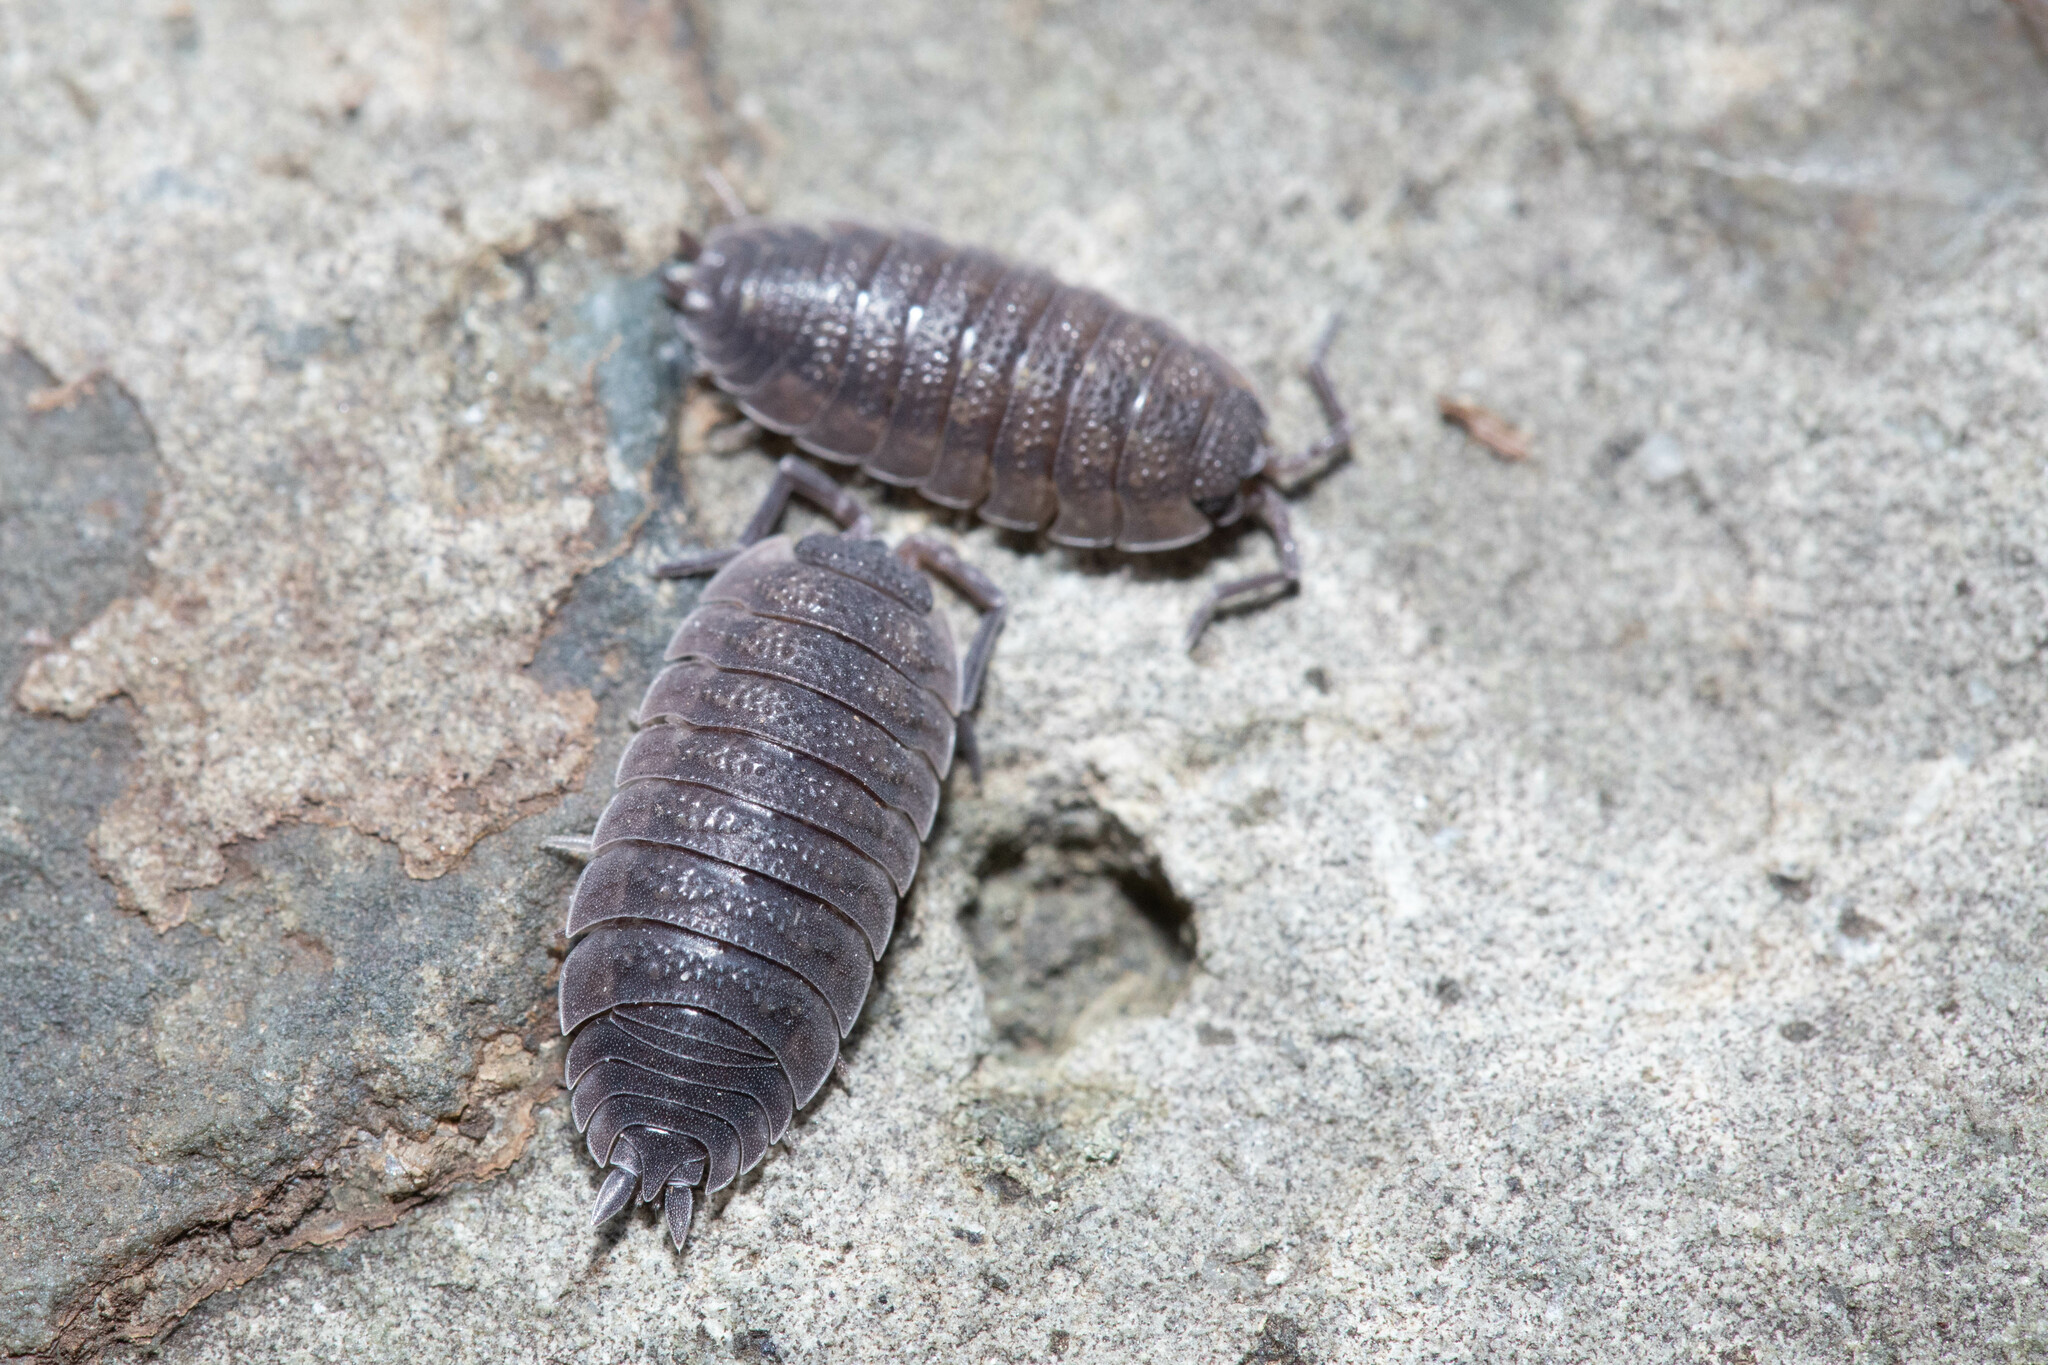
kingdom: Animalia
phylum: Arthropoda
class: Malacostraca
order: Isopoda
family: Porcellionidae
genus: Porcellio
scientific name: Porcellio scaber
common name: Common rough woodlouse
